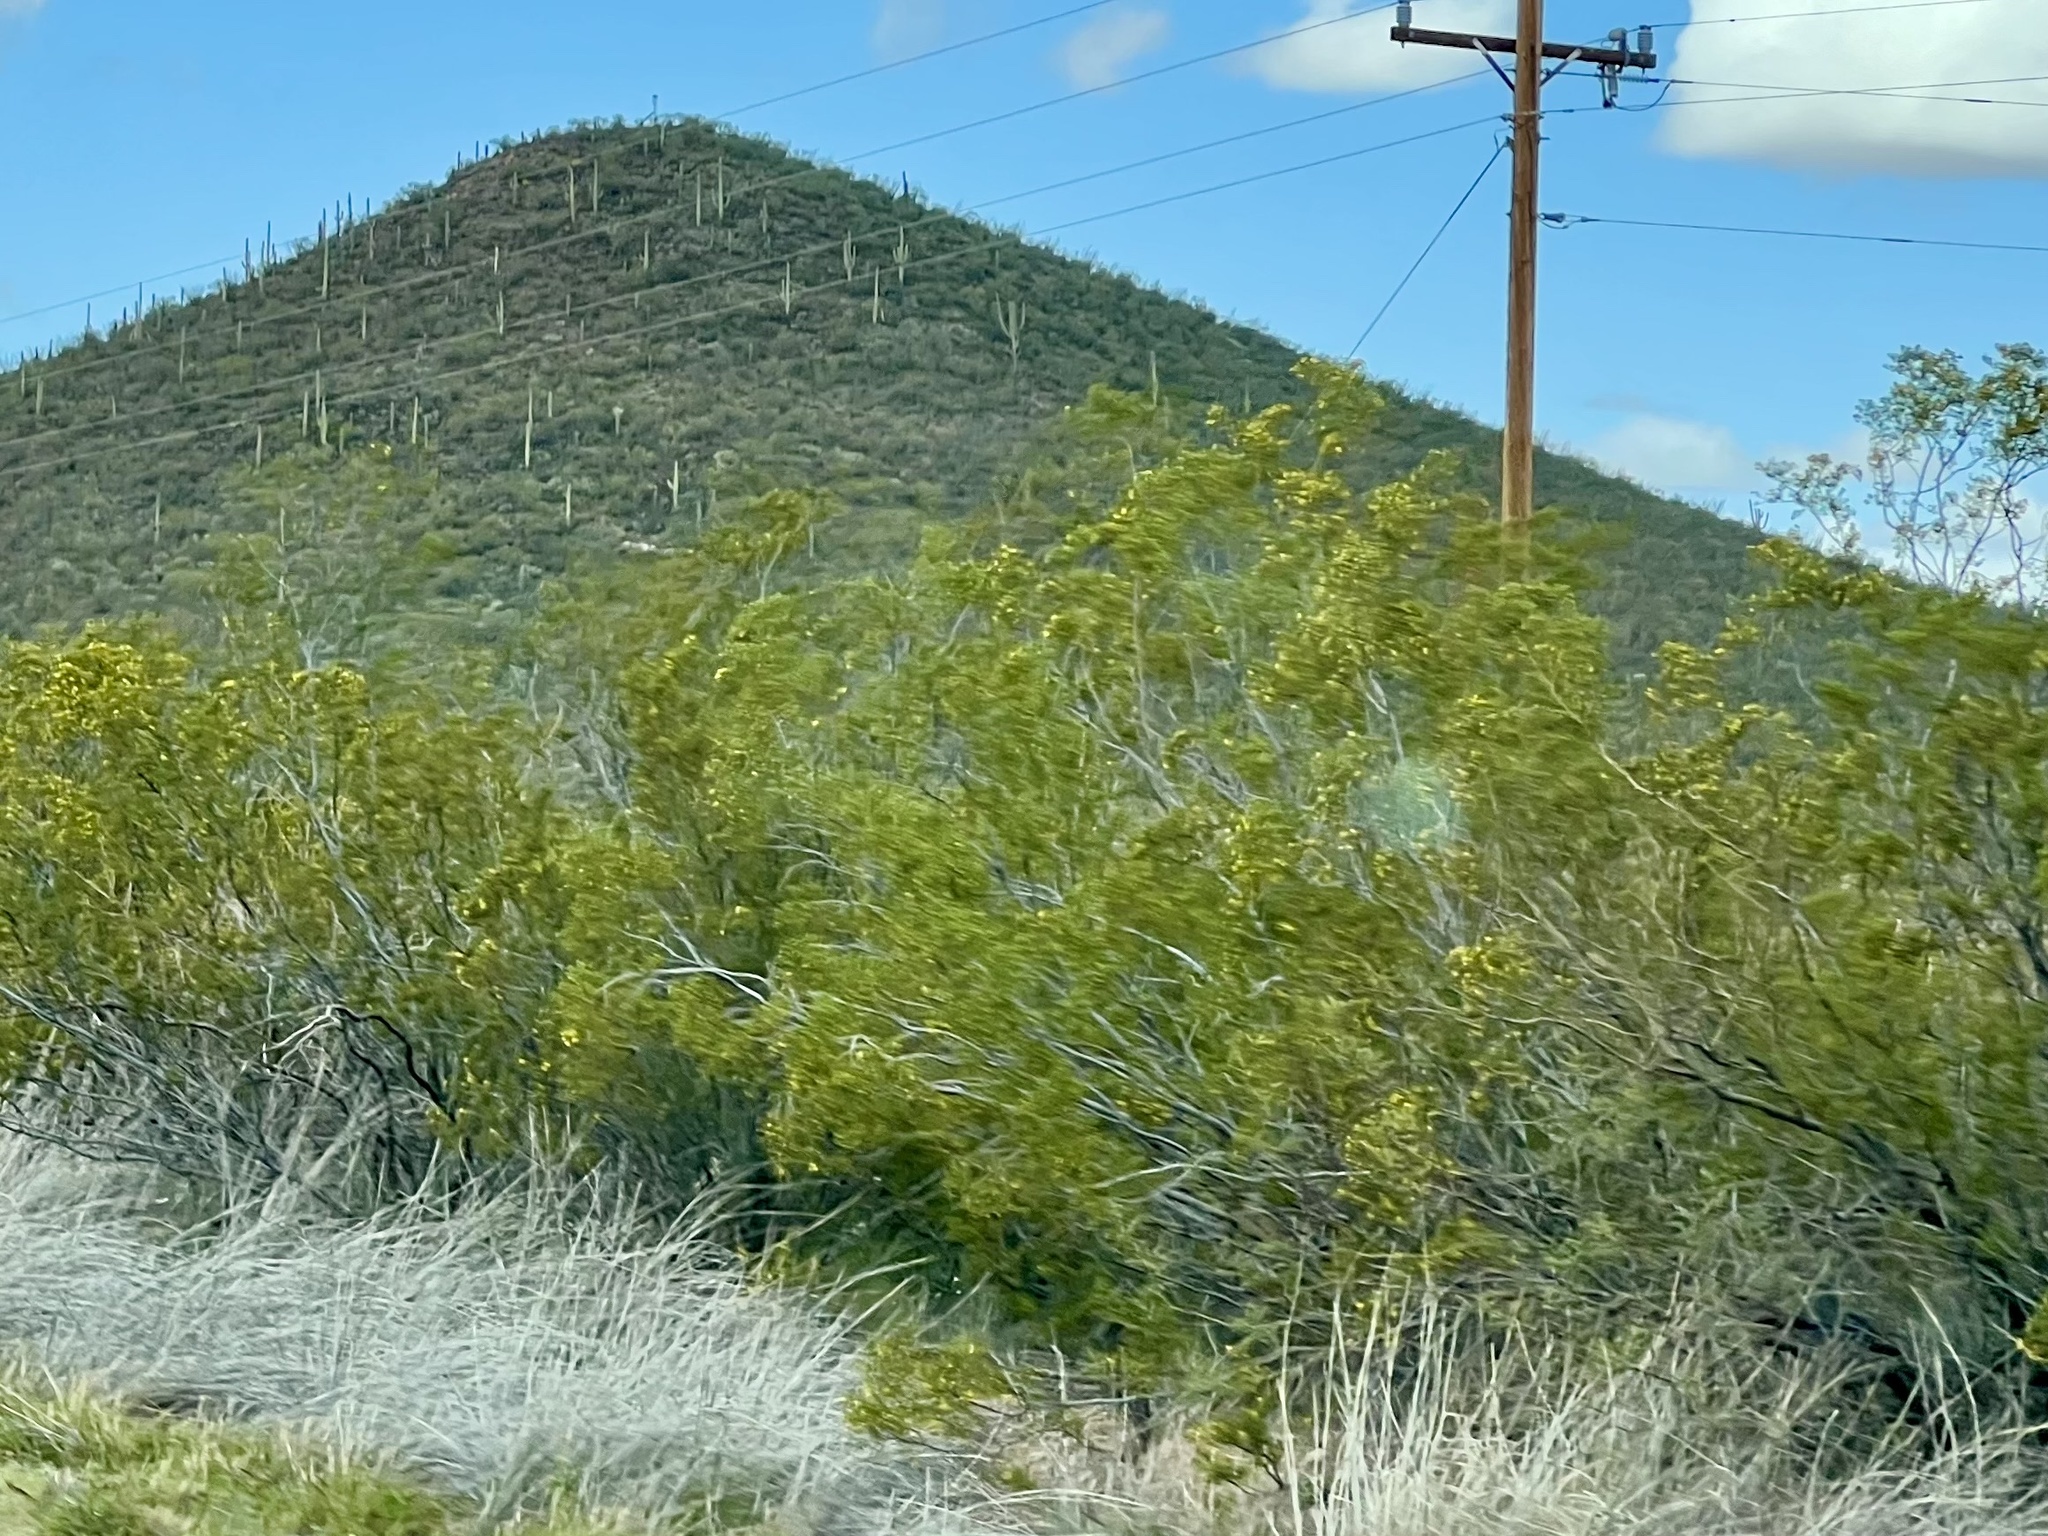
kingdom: Plantae
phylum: Tracheophyta
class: Magnoliopsida
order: Zygophyllales
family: Zygophyllaceae
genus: Larrea
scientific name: Larrea tridentata
